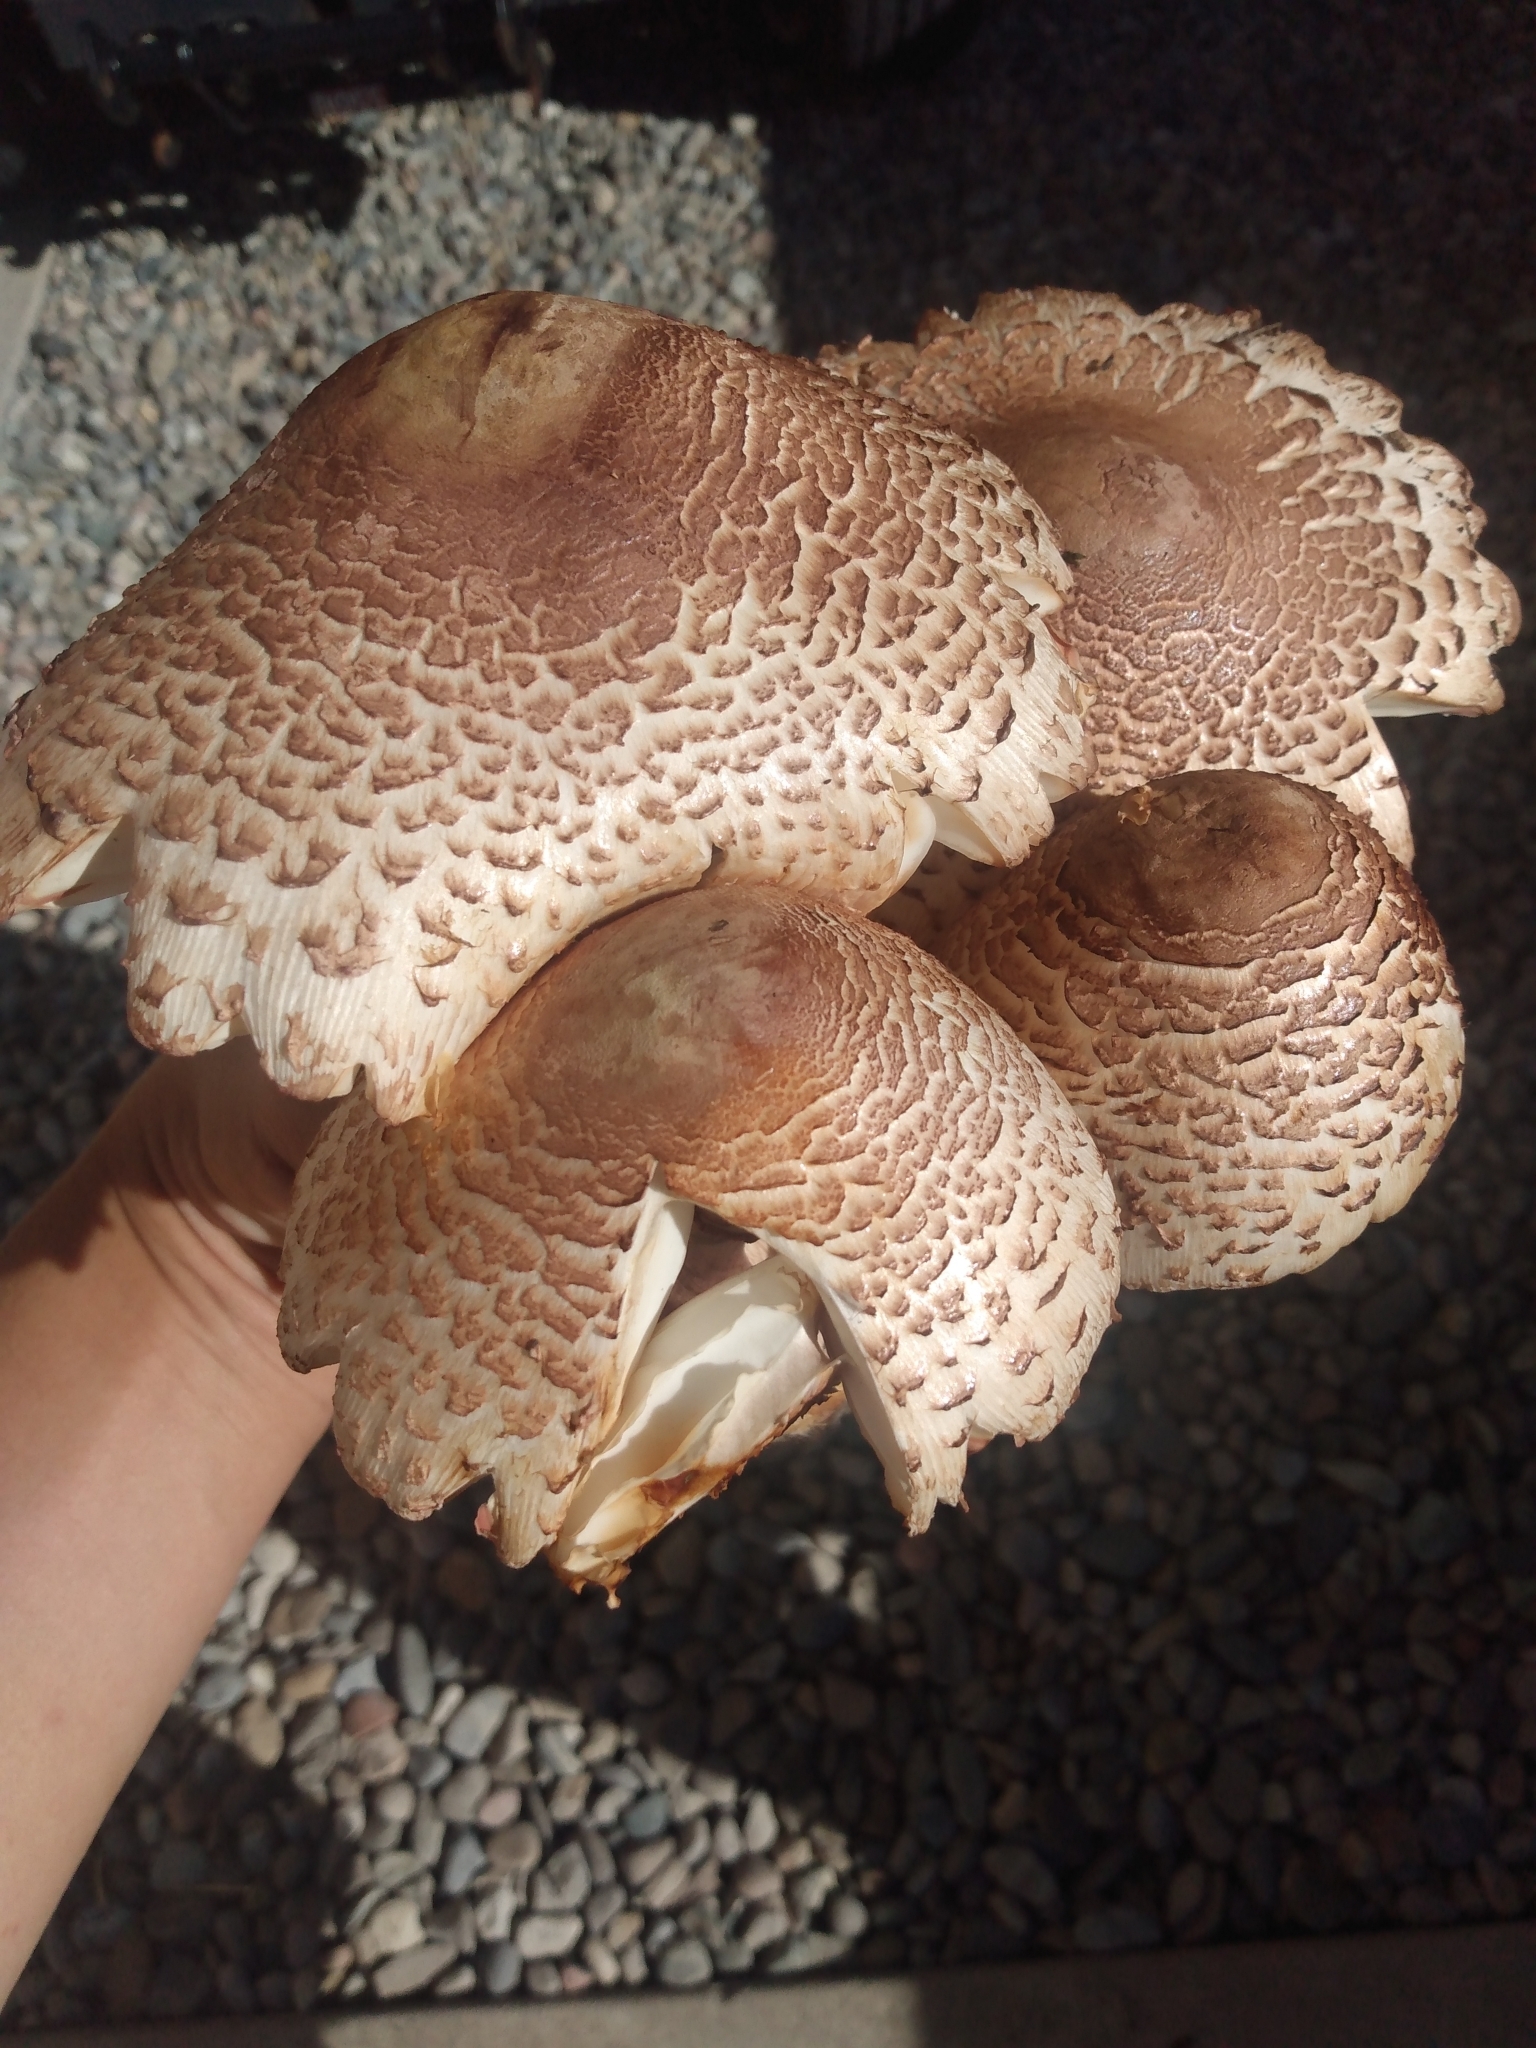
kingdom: Fungi
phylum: Basidiomycota
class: Agaricomycetes
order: Agaricales
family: Agaricaceae
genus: Leucoagaricus
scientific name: Leucoagaricus americanus
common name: Reddening lepiota
